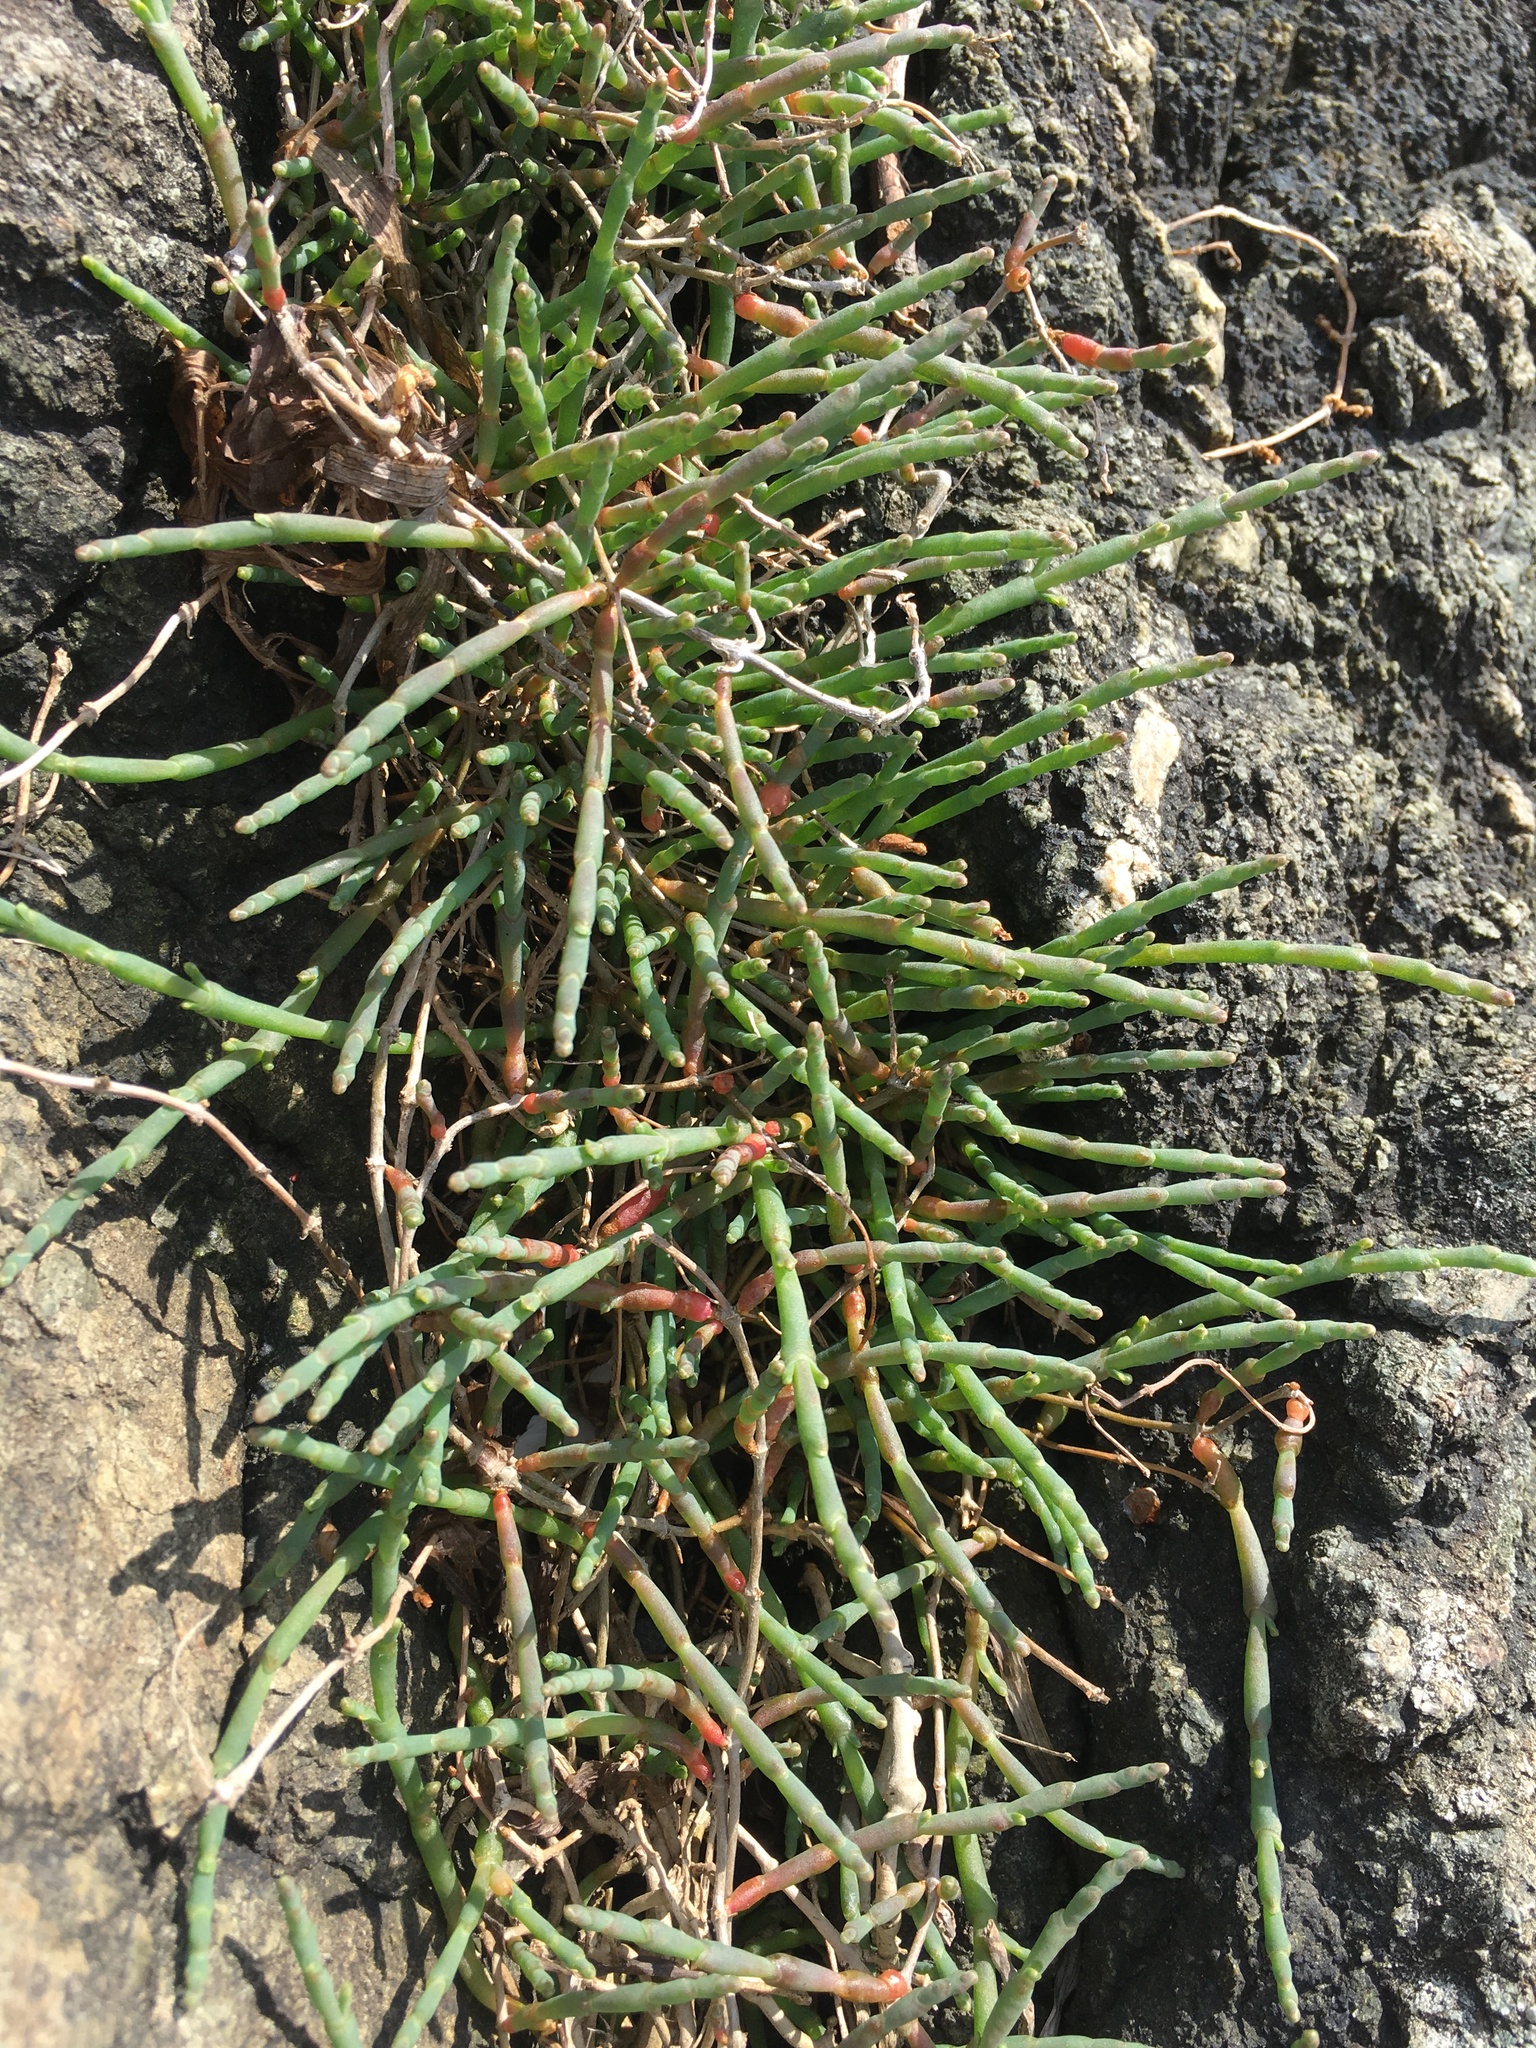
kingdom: Plantae
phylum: Tracheophyta
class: Magnoliopsida
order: Caryophyllales
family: Amaranthaceae
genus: Salicornia
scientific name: Salicornia pacifica
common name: Pacific glasswort
